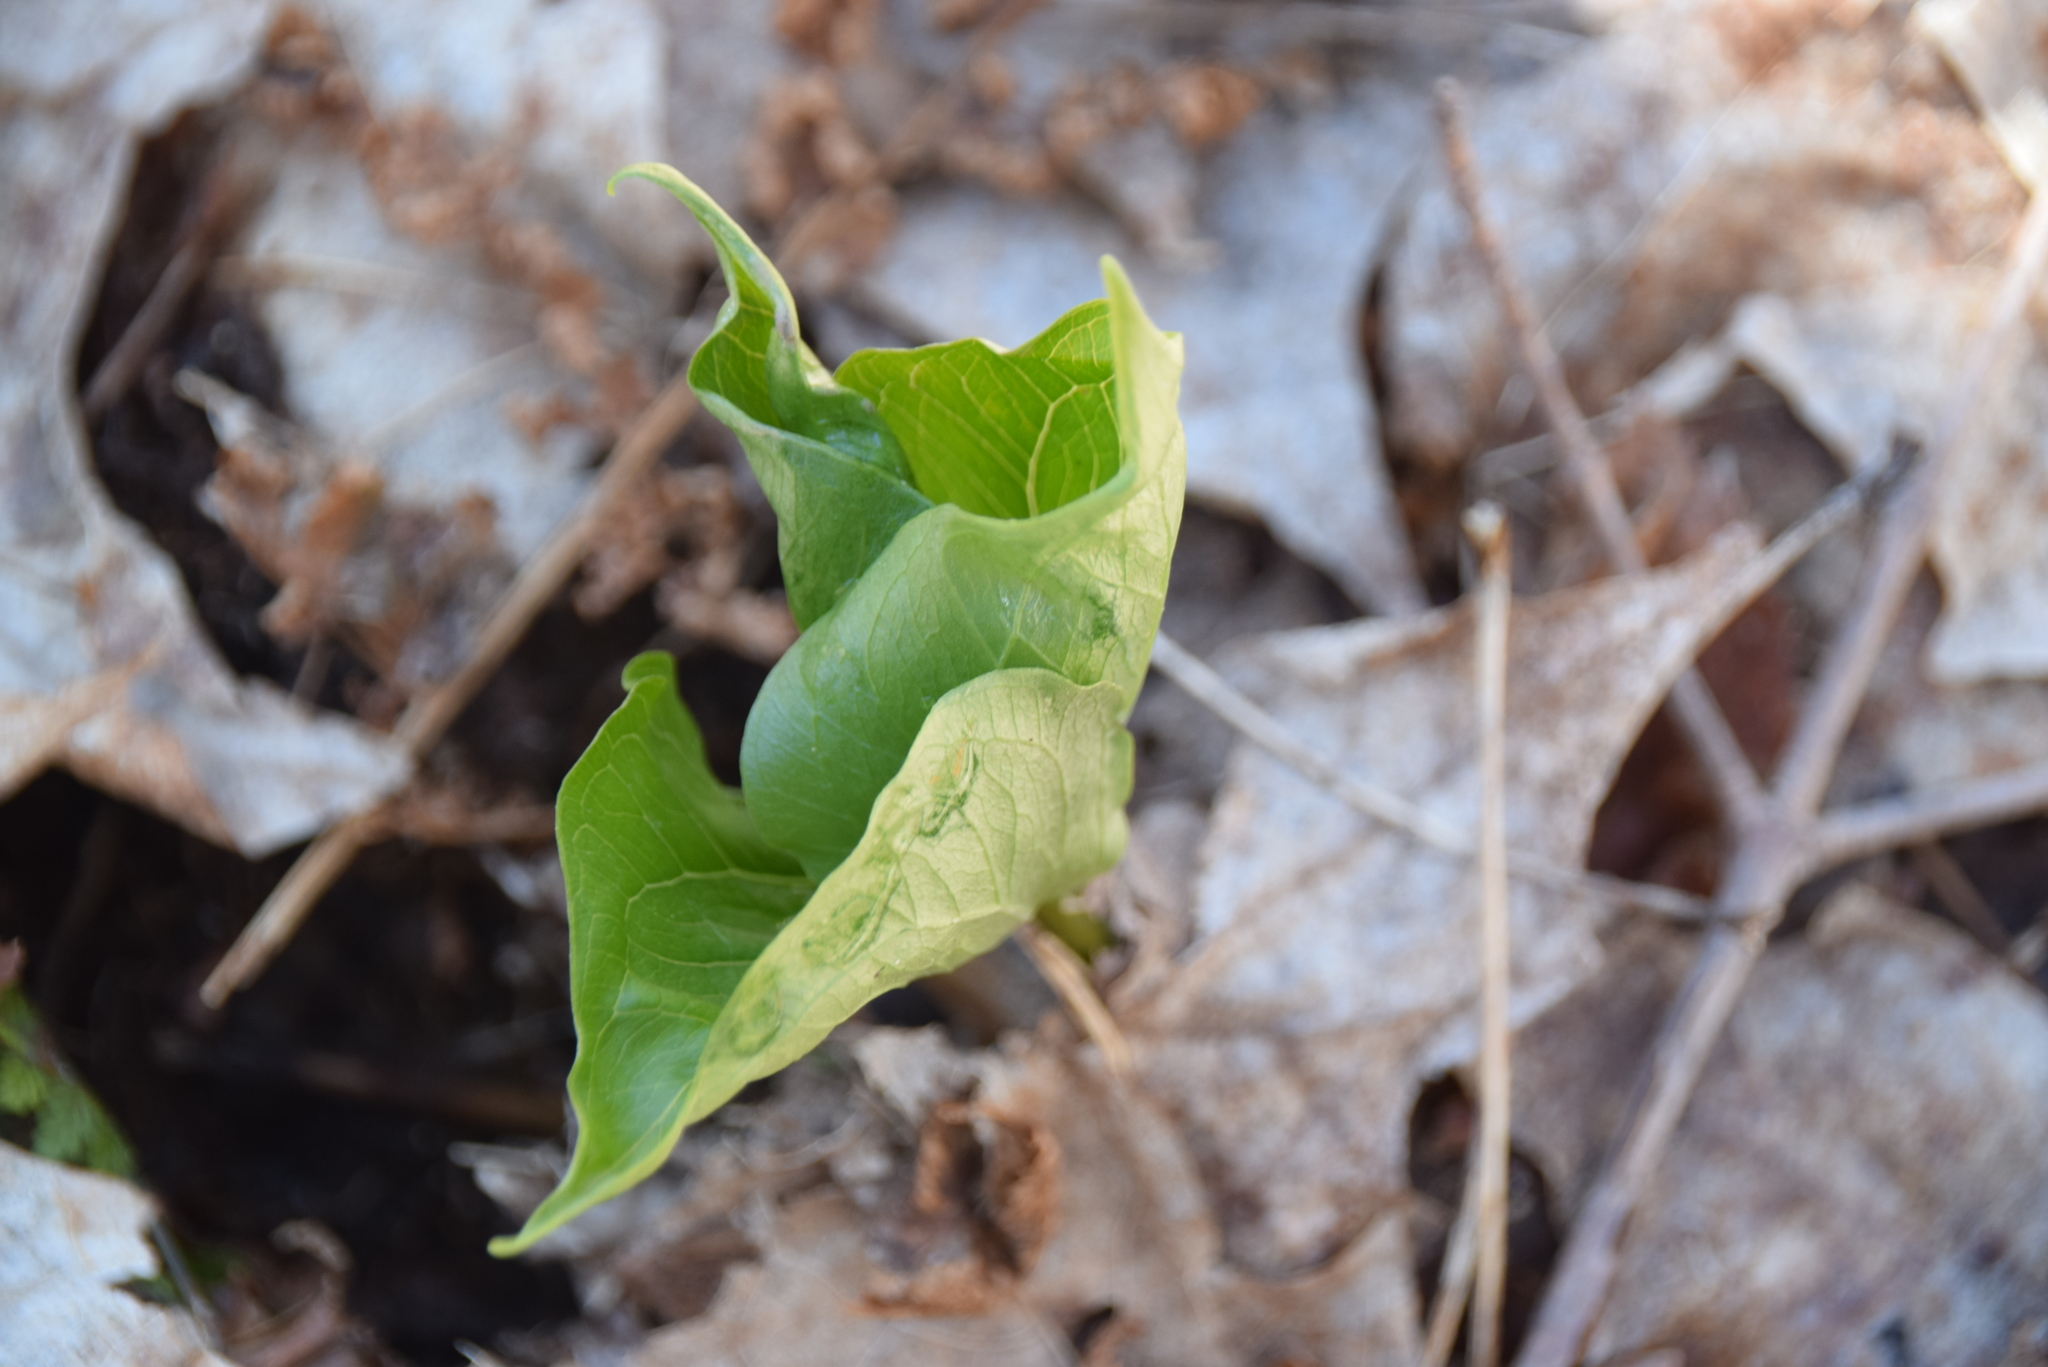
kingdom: Plantae
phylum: Tracheophyta
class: Liliopsida
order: Liliales
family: Melanthiaceae
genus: Trillium
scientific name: Trillium erectum
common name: Purple trillium
